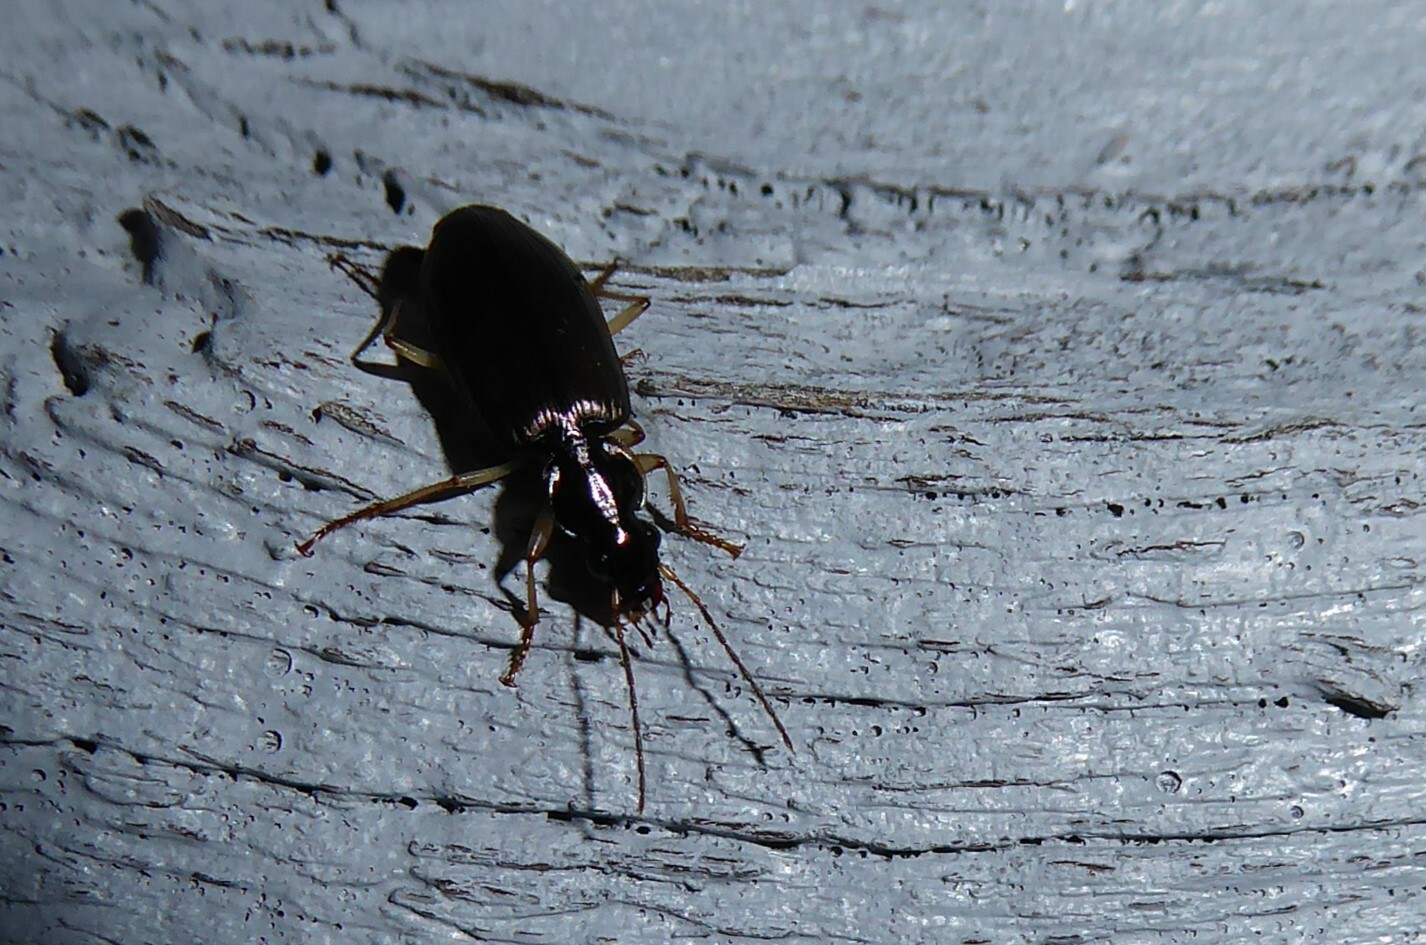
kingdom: Animalia
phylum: Arthropoda
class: Insecta
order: Coleoptera
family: Carabidae
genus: Notagonum
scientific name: Notagonum submetallicum
